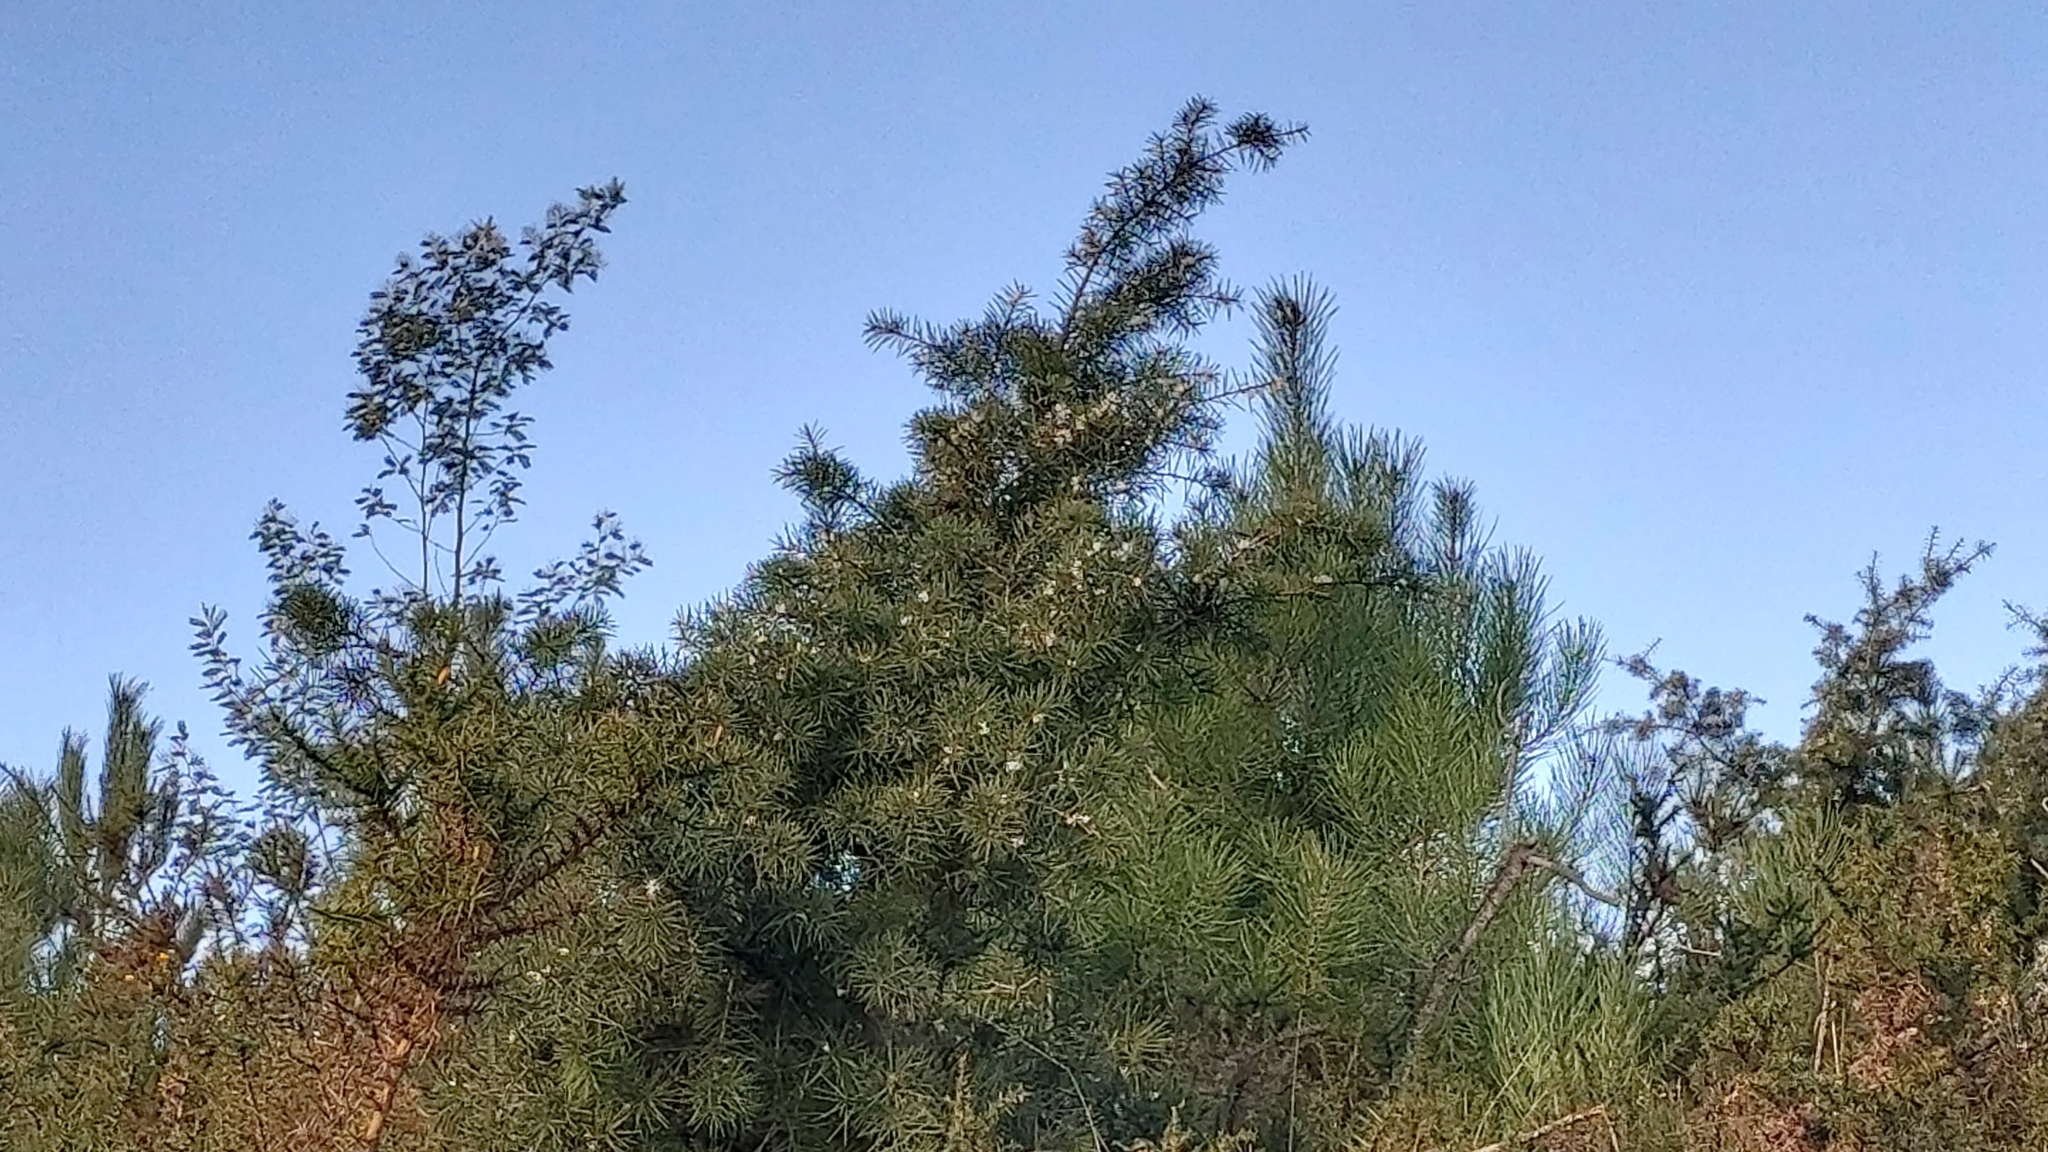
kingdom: Plantae
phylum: Tracheophyta
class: Magnoliopsida
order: Proteales
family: Proteaceae
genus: Hakea
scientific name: Hakea decurrens
